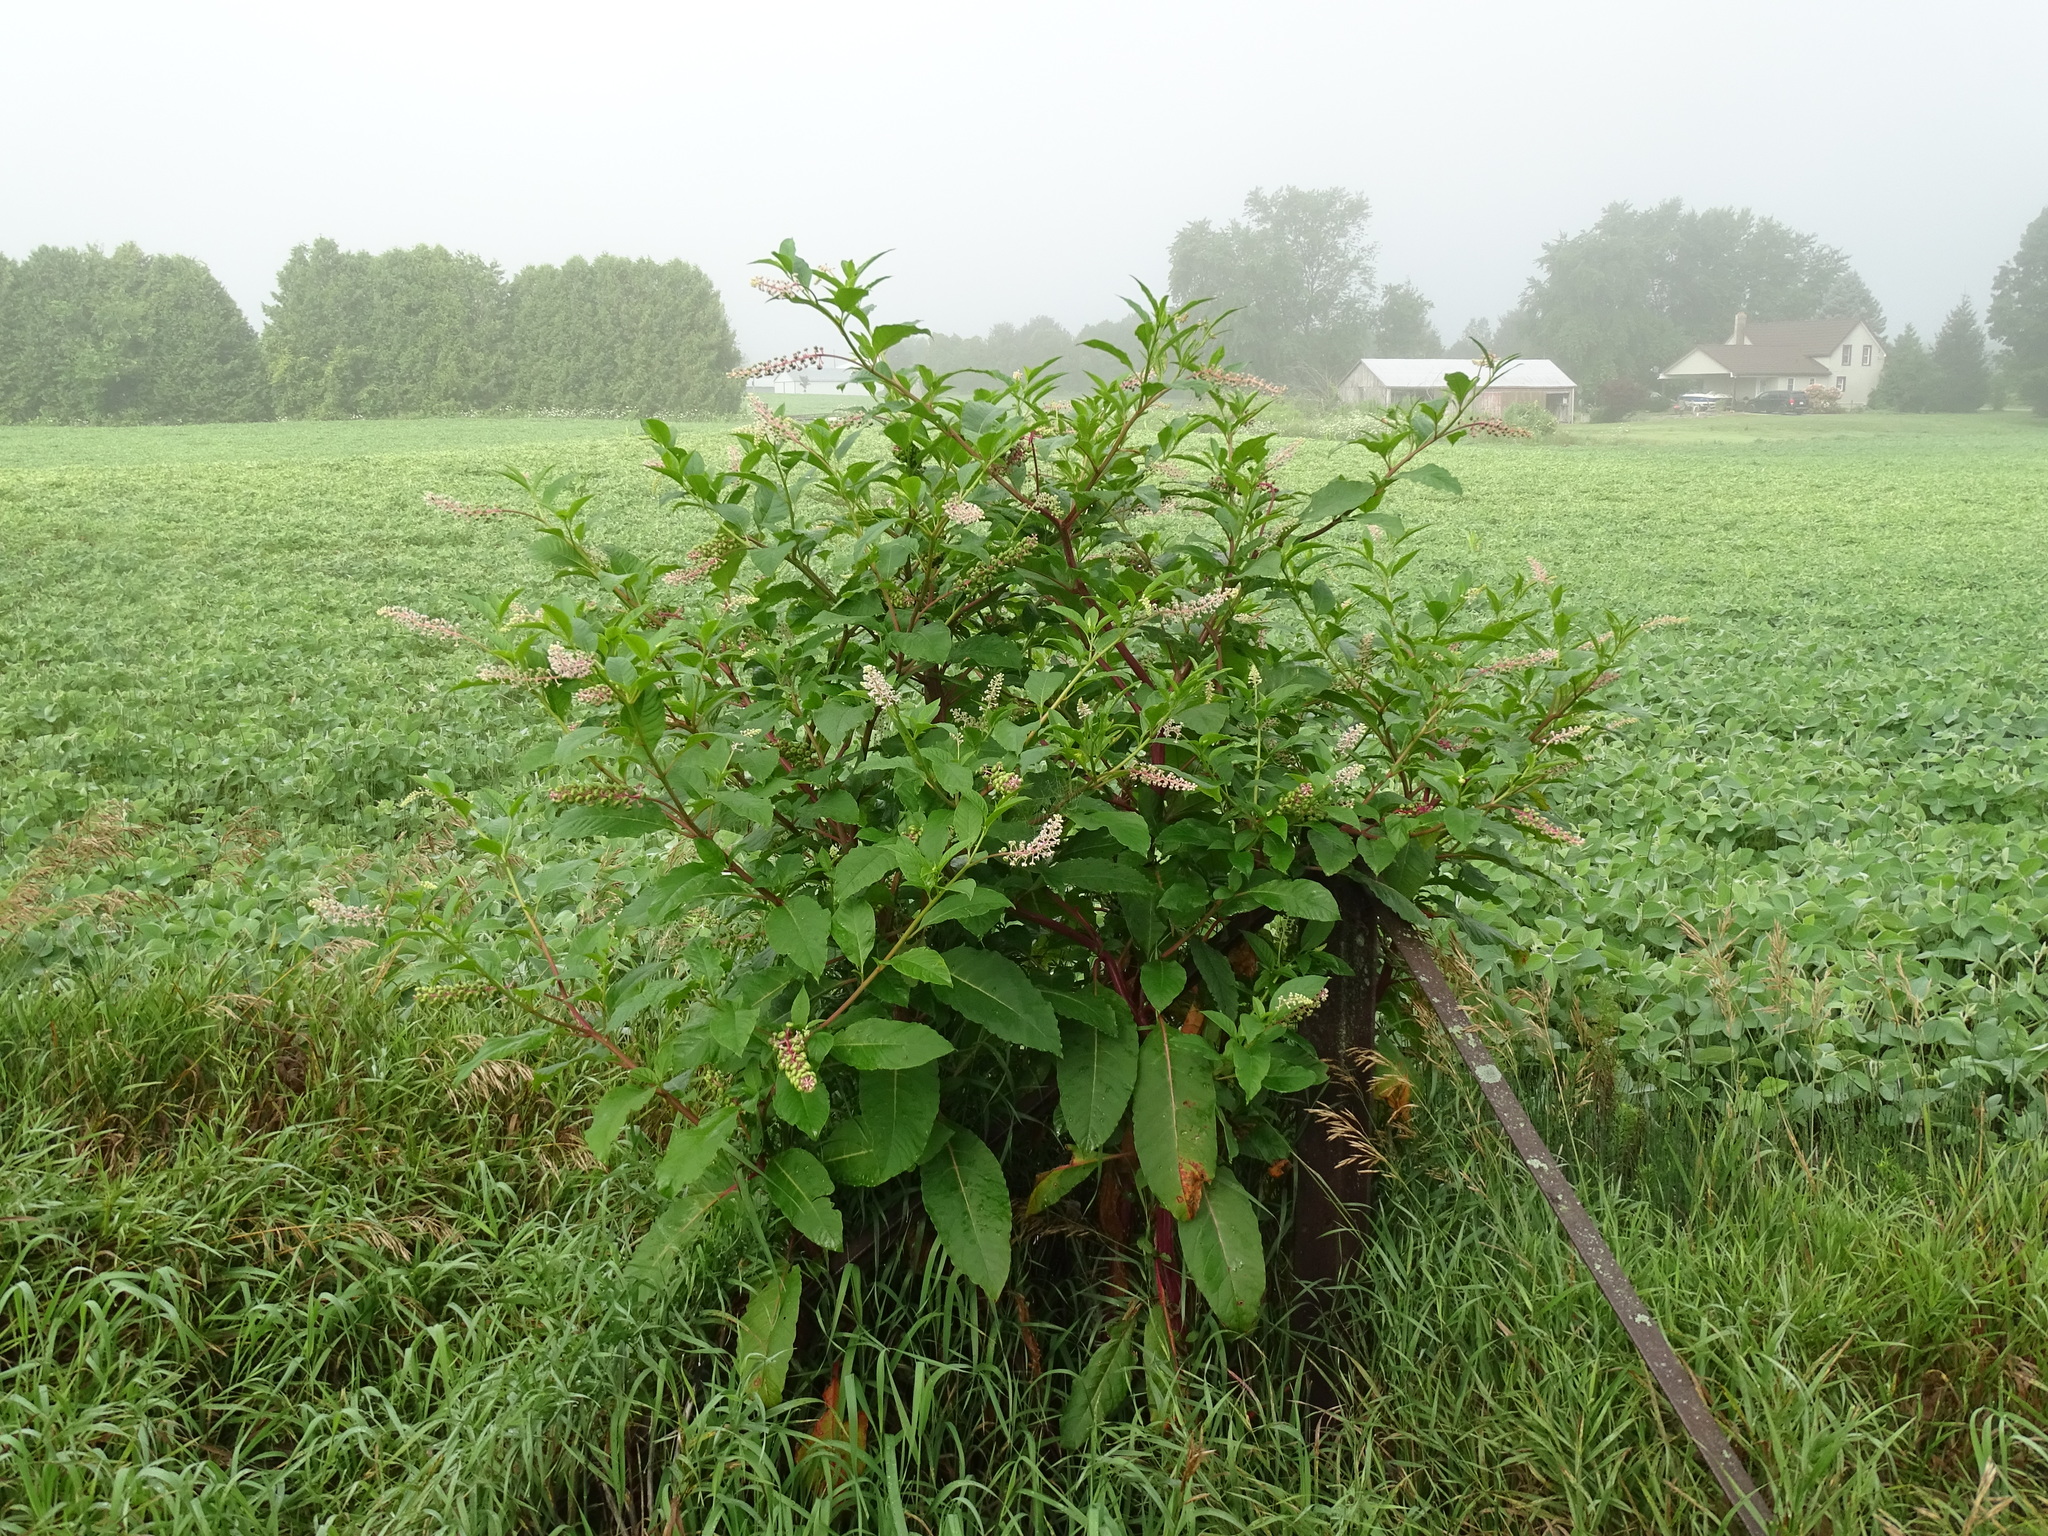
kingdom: Plantae
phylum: Tracheophyta
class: Magnoliopsida
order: Caryophyllales
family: Phytolaccaceae
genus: Phytolacca
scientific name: Phytolacca americana
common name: American pokeweed
